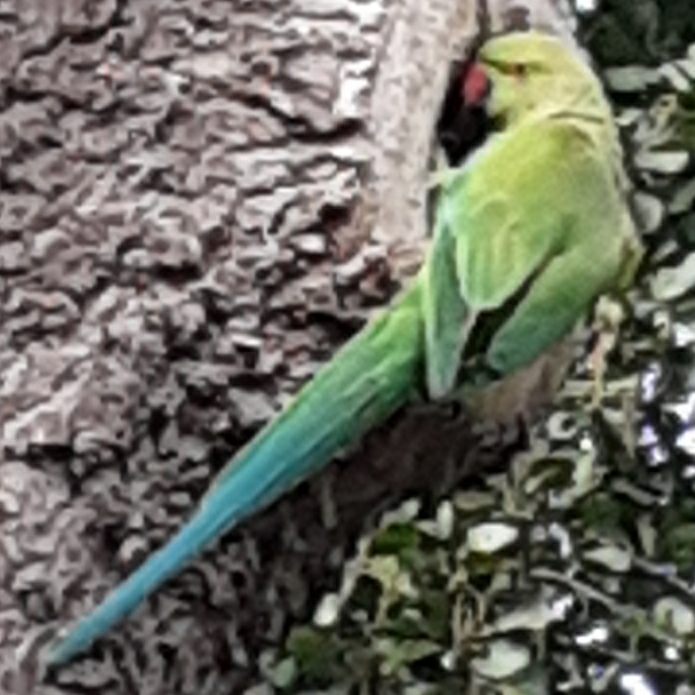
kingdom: Animalia
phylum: Chordata
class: Aves
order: Psittaciformes
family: Psittacidae
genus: Psittacula
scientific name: Psittacula krameri
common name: Rose-ringed parakeet
